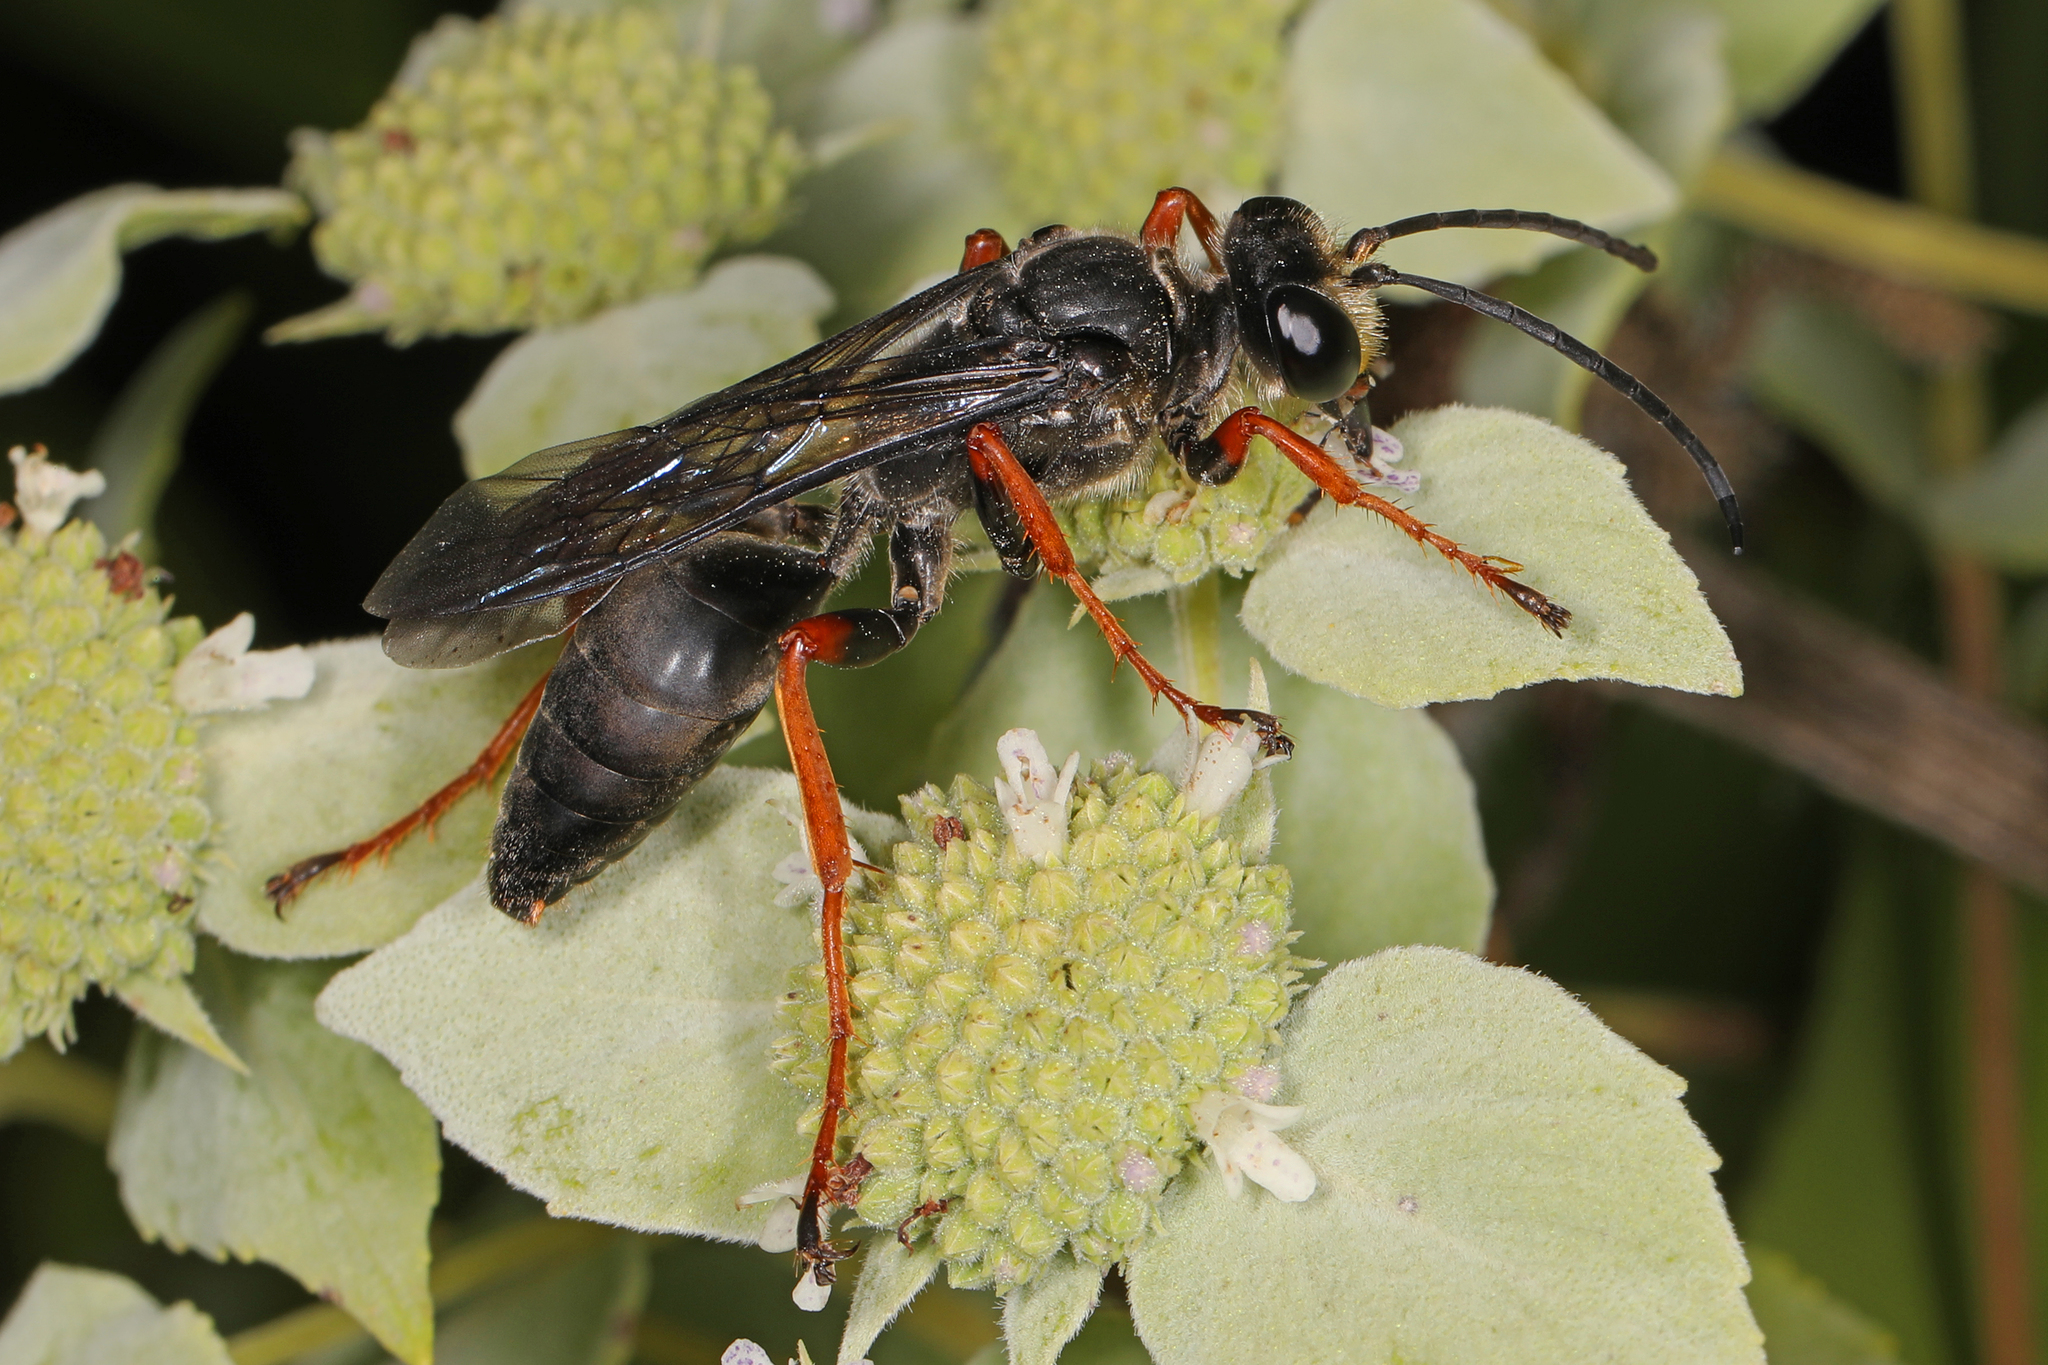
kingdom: Animalia
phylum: Arthropoda
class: Insecta
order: Hymenoptera
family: Sphecidae
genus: Sphex
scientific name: Sphex nudus
